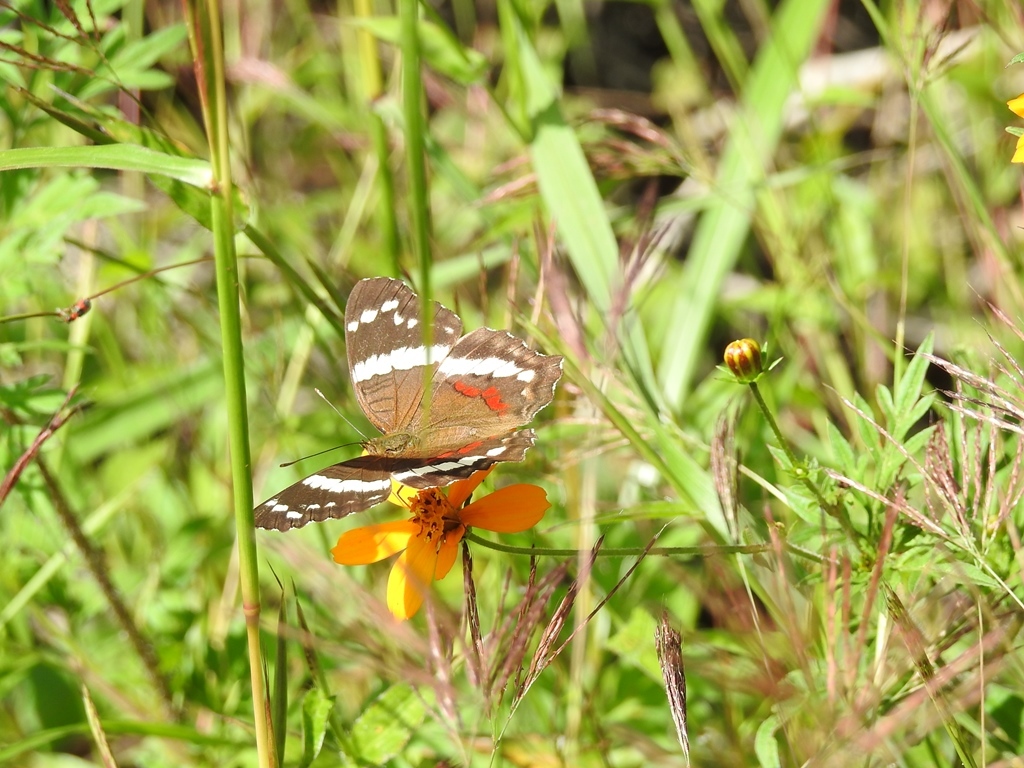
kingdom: Animalia
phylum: Arthropoda
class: Insecta
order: Lepidoptera
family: Nymphalidae
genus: Anartia
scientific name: Anartia fatima
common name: Banded peacock
